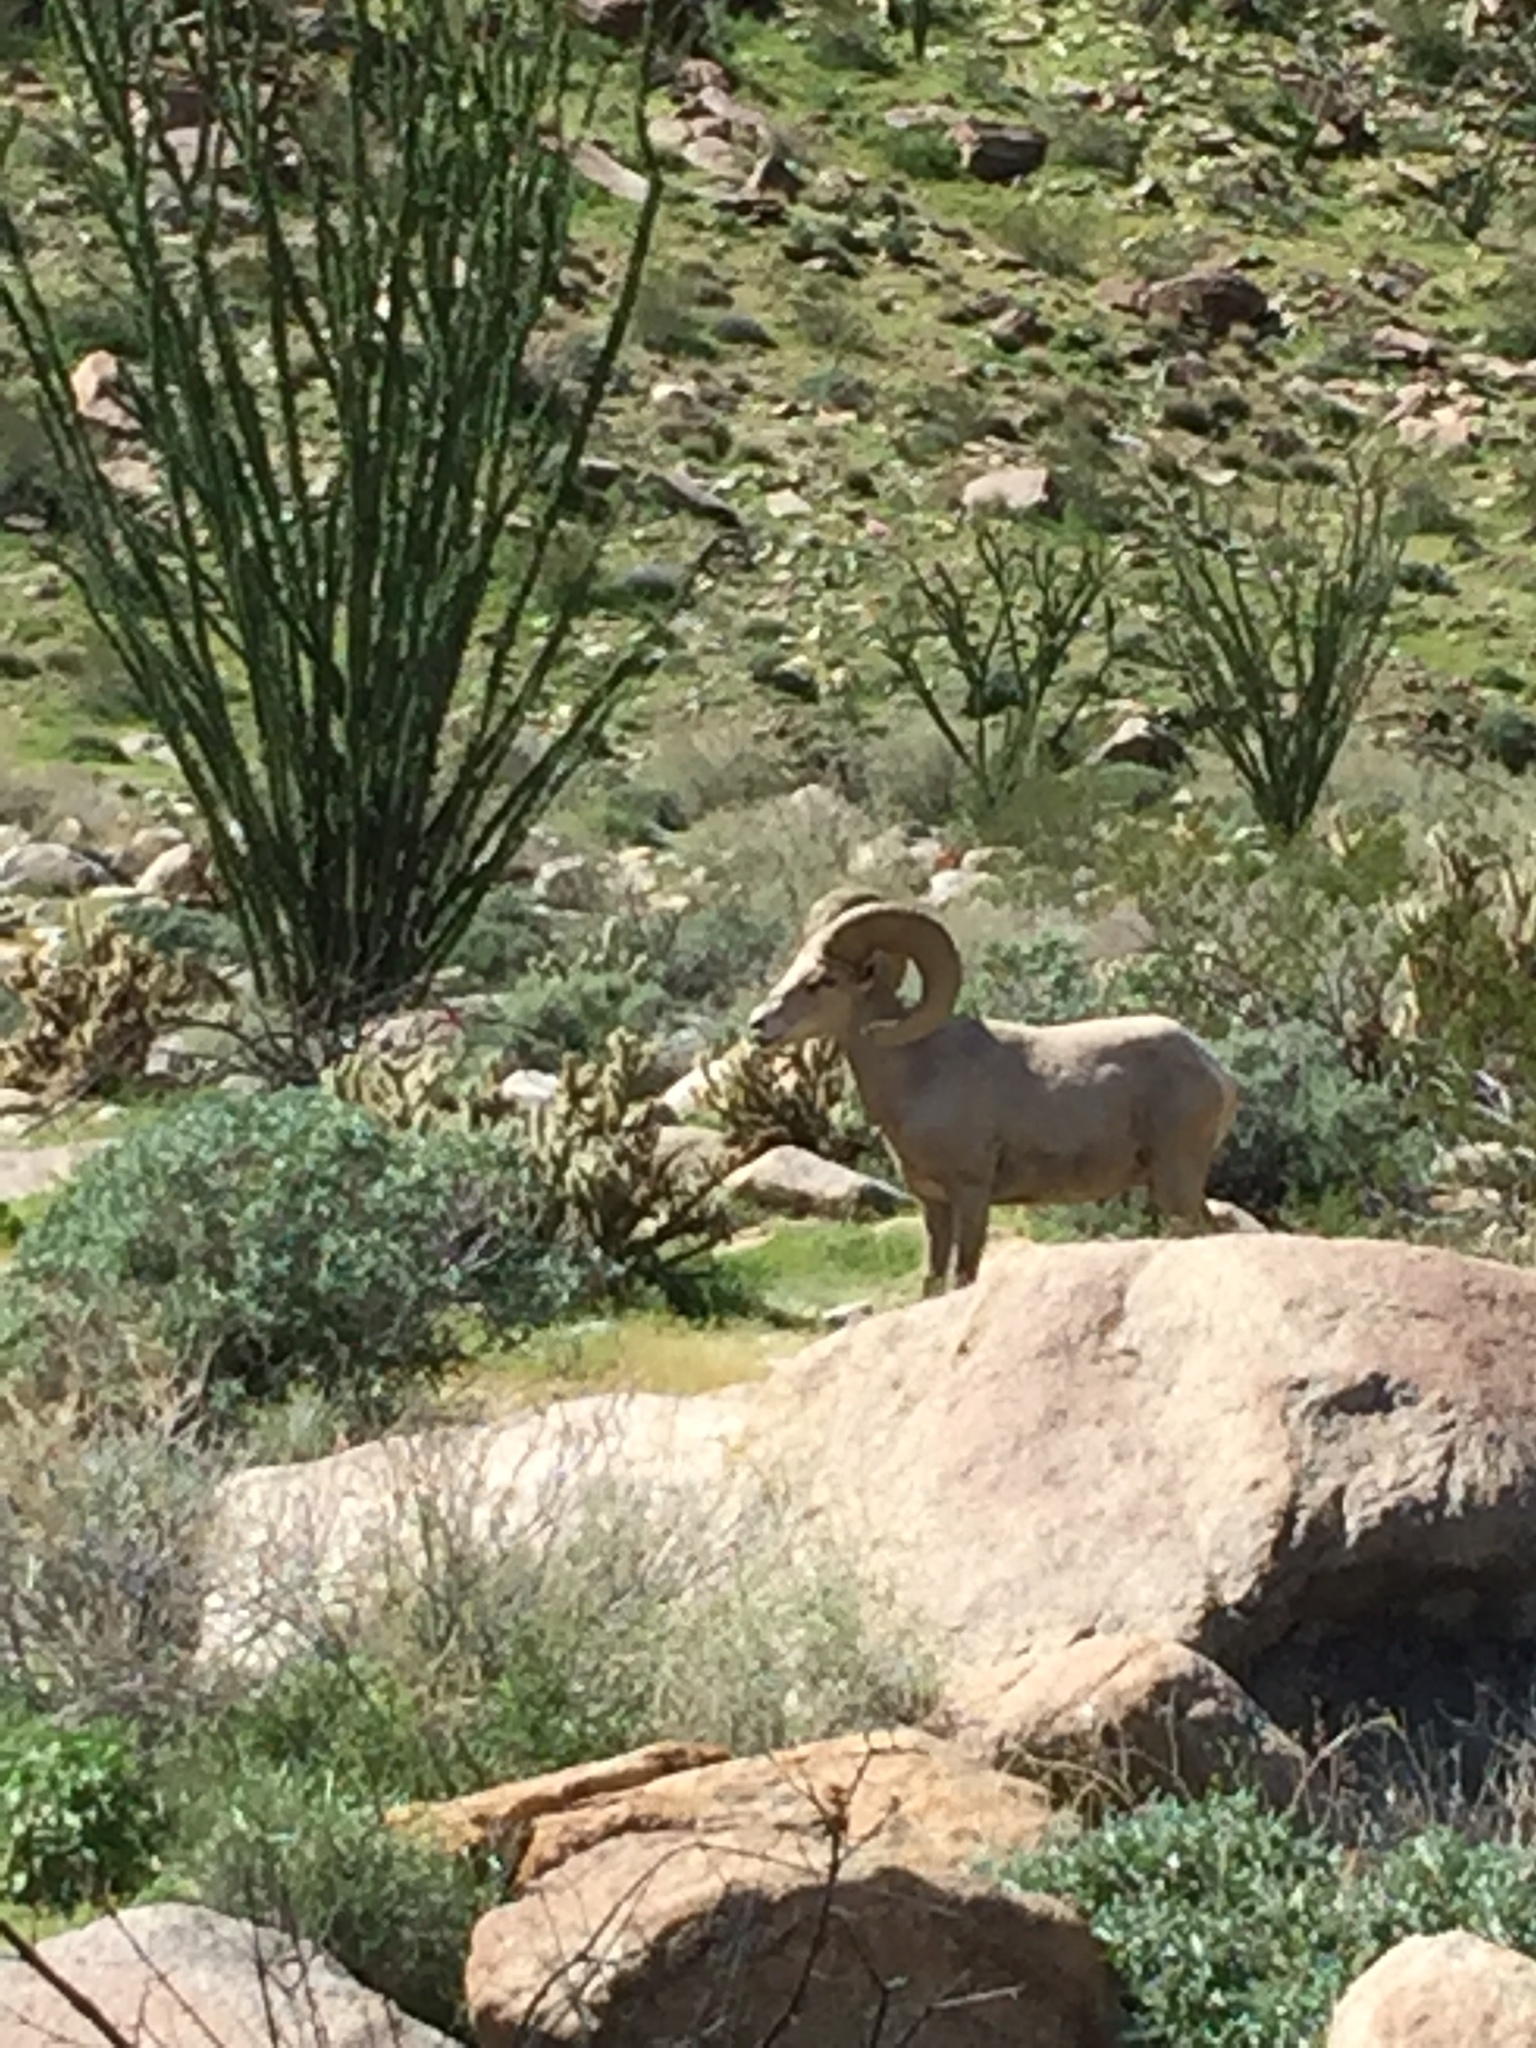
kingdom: Animalia
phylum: Chordata
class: Mammalia
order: Artiodactyla
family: Bovidae
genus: Ovis
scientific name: Ovis canadensis
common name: Bighorn sheep
